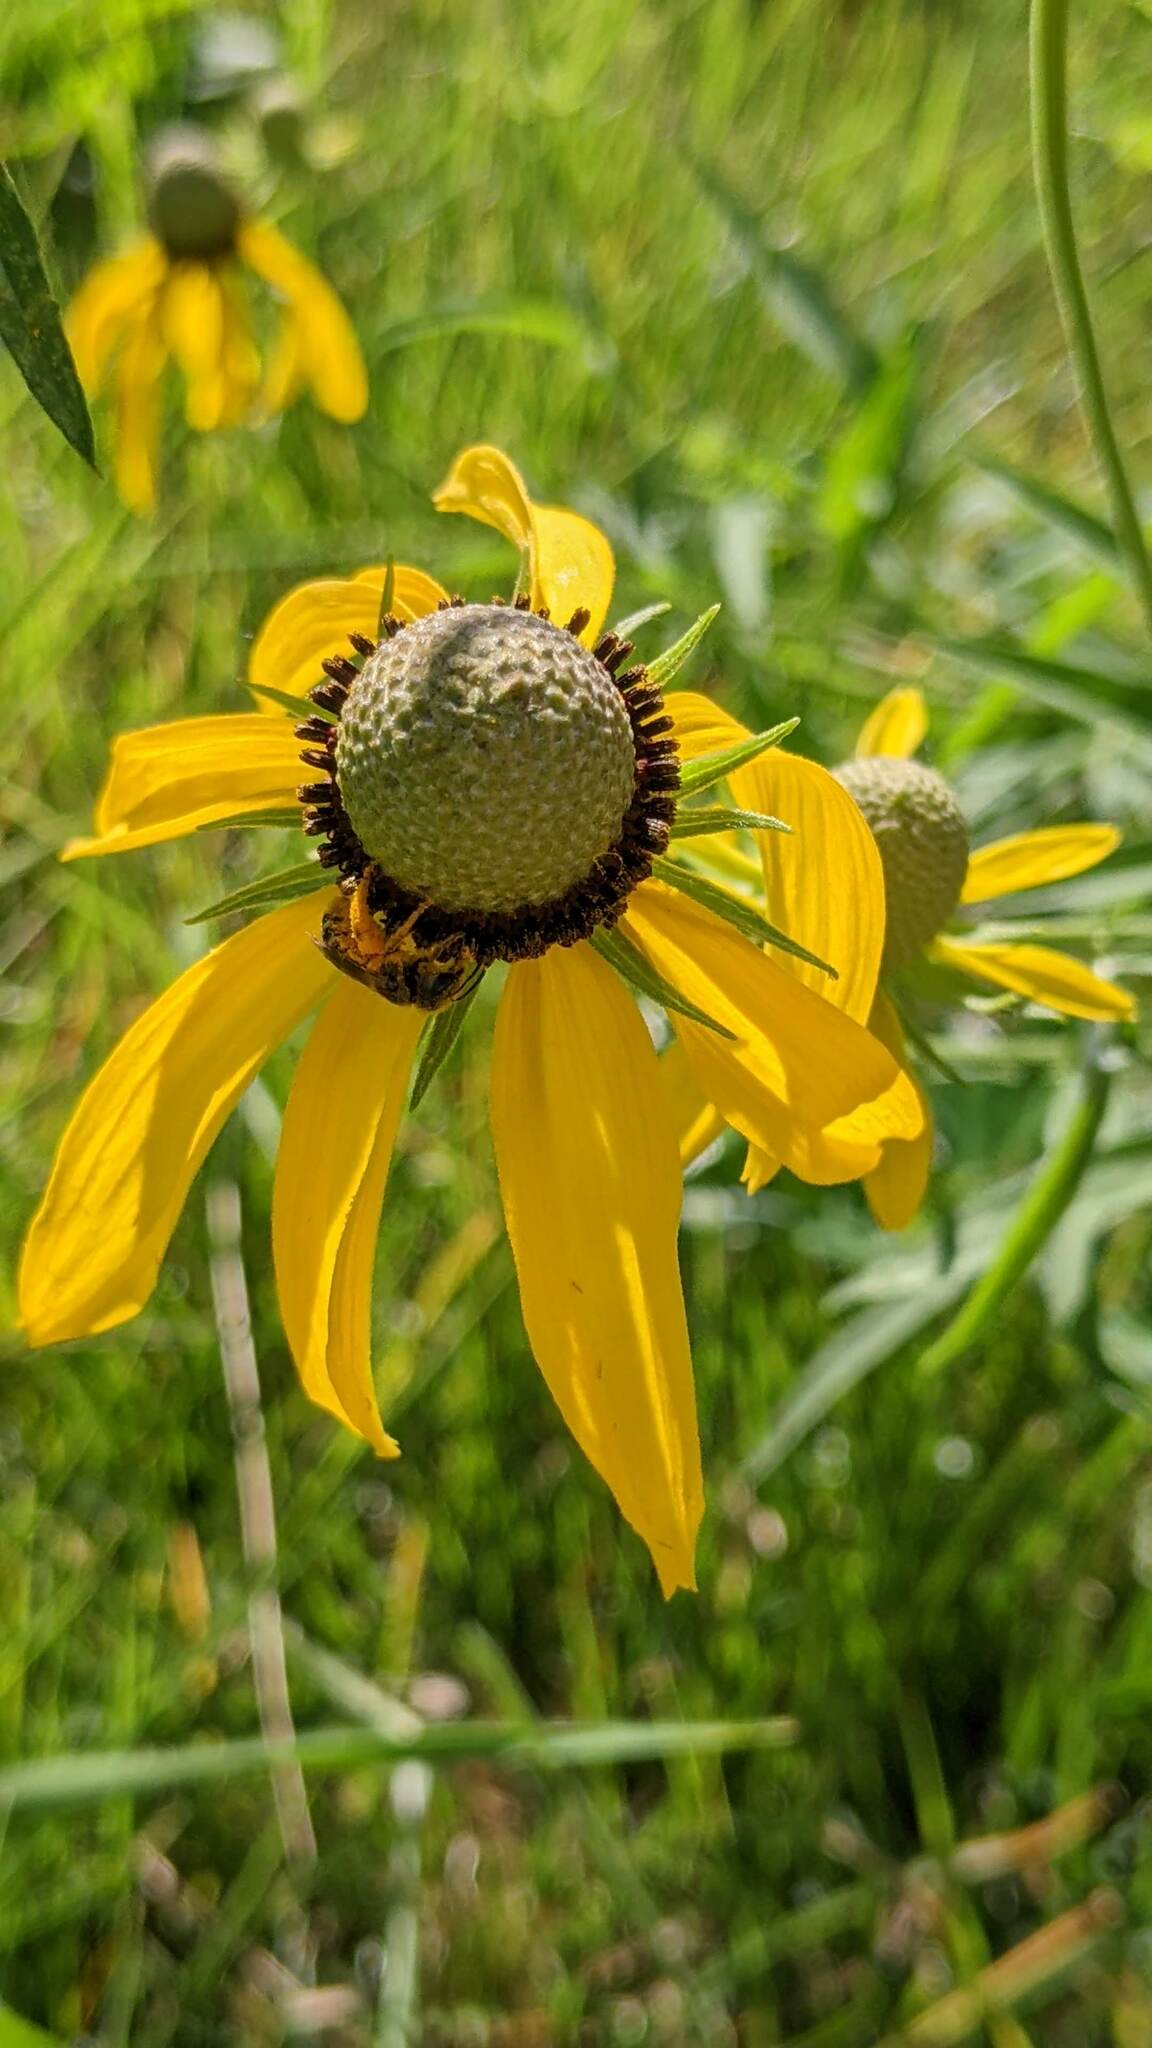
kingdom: Animalia
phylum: Arthropoda
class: Insecta
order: Hymenoptera
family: Halictidae
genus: Halictus
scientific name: Halictus ligatus
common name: Ligated furrow bee
